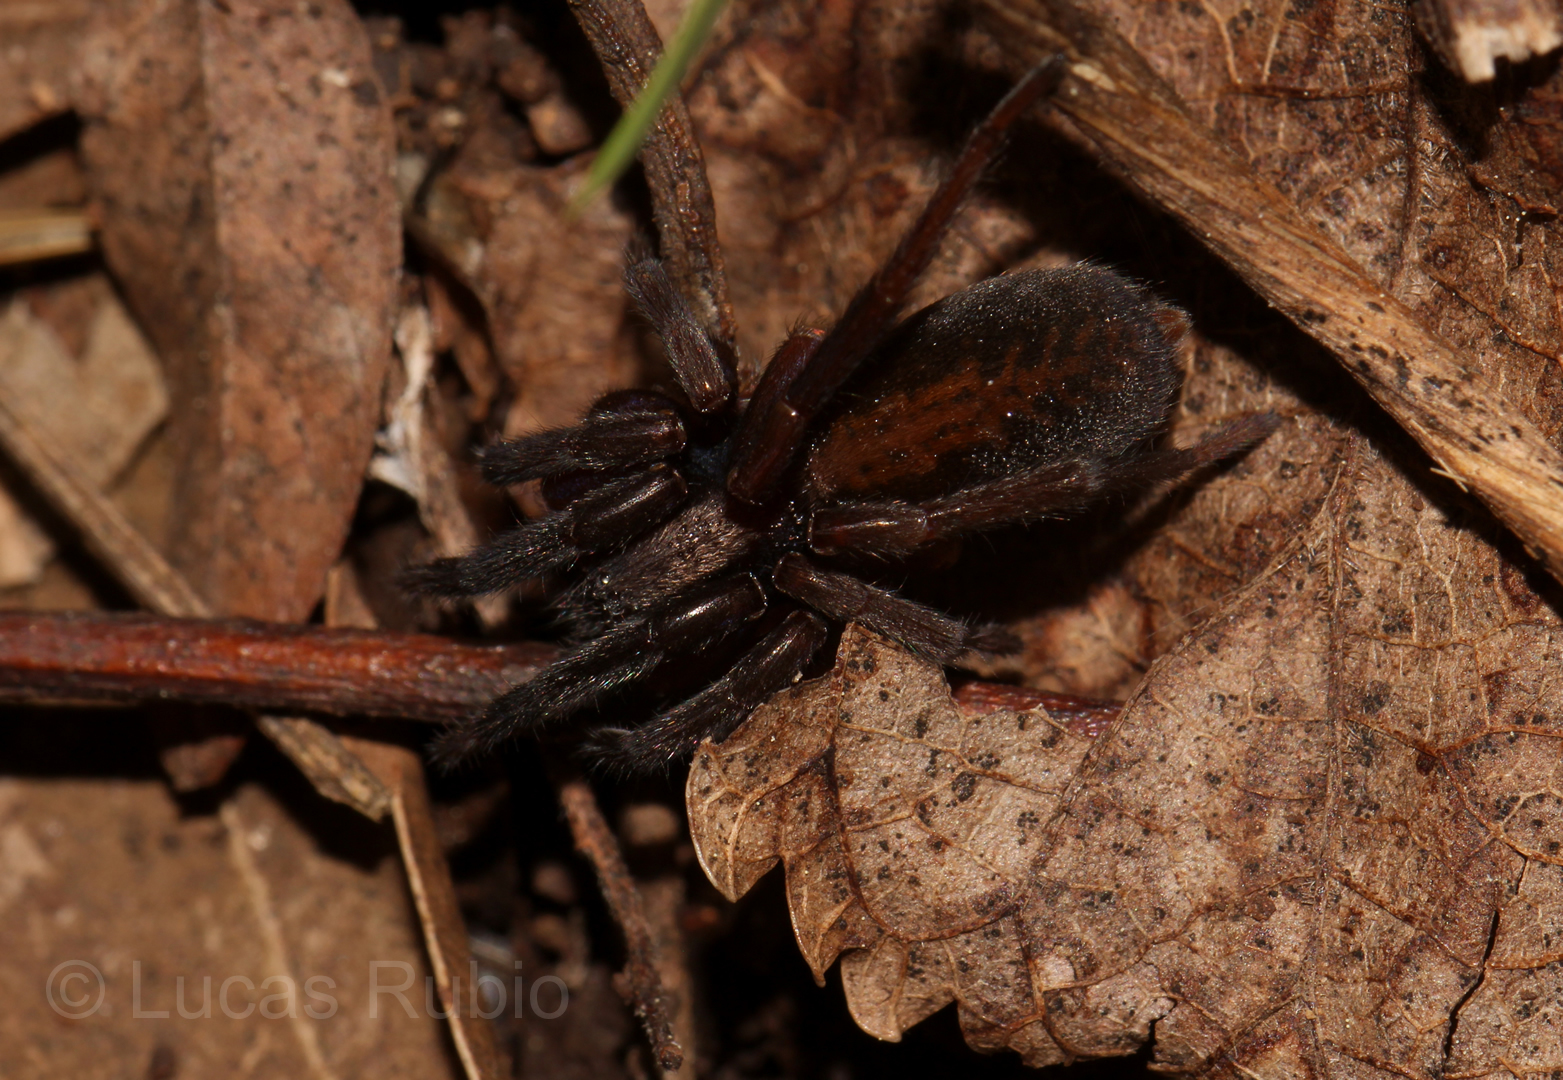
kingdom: Animalia
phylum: Arthropoda
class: Arachnida
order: Araneae
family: Miturgidae
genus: Teminius
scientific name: Teminius insularis
